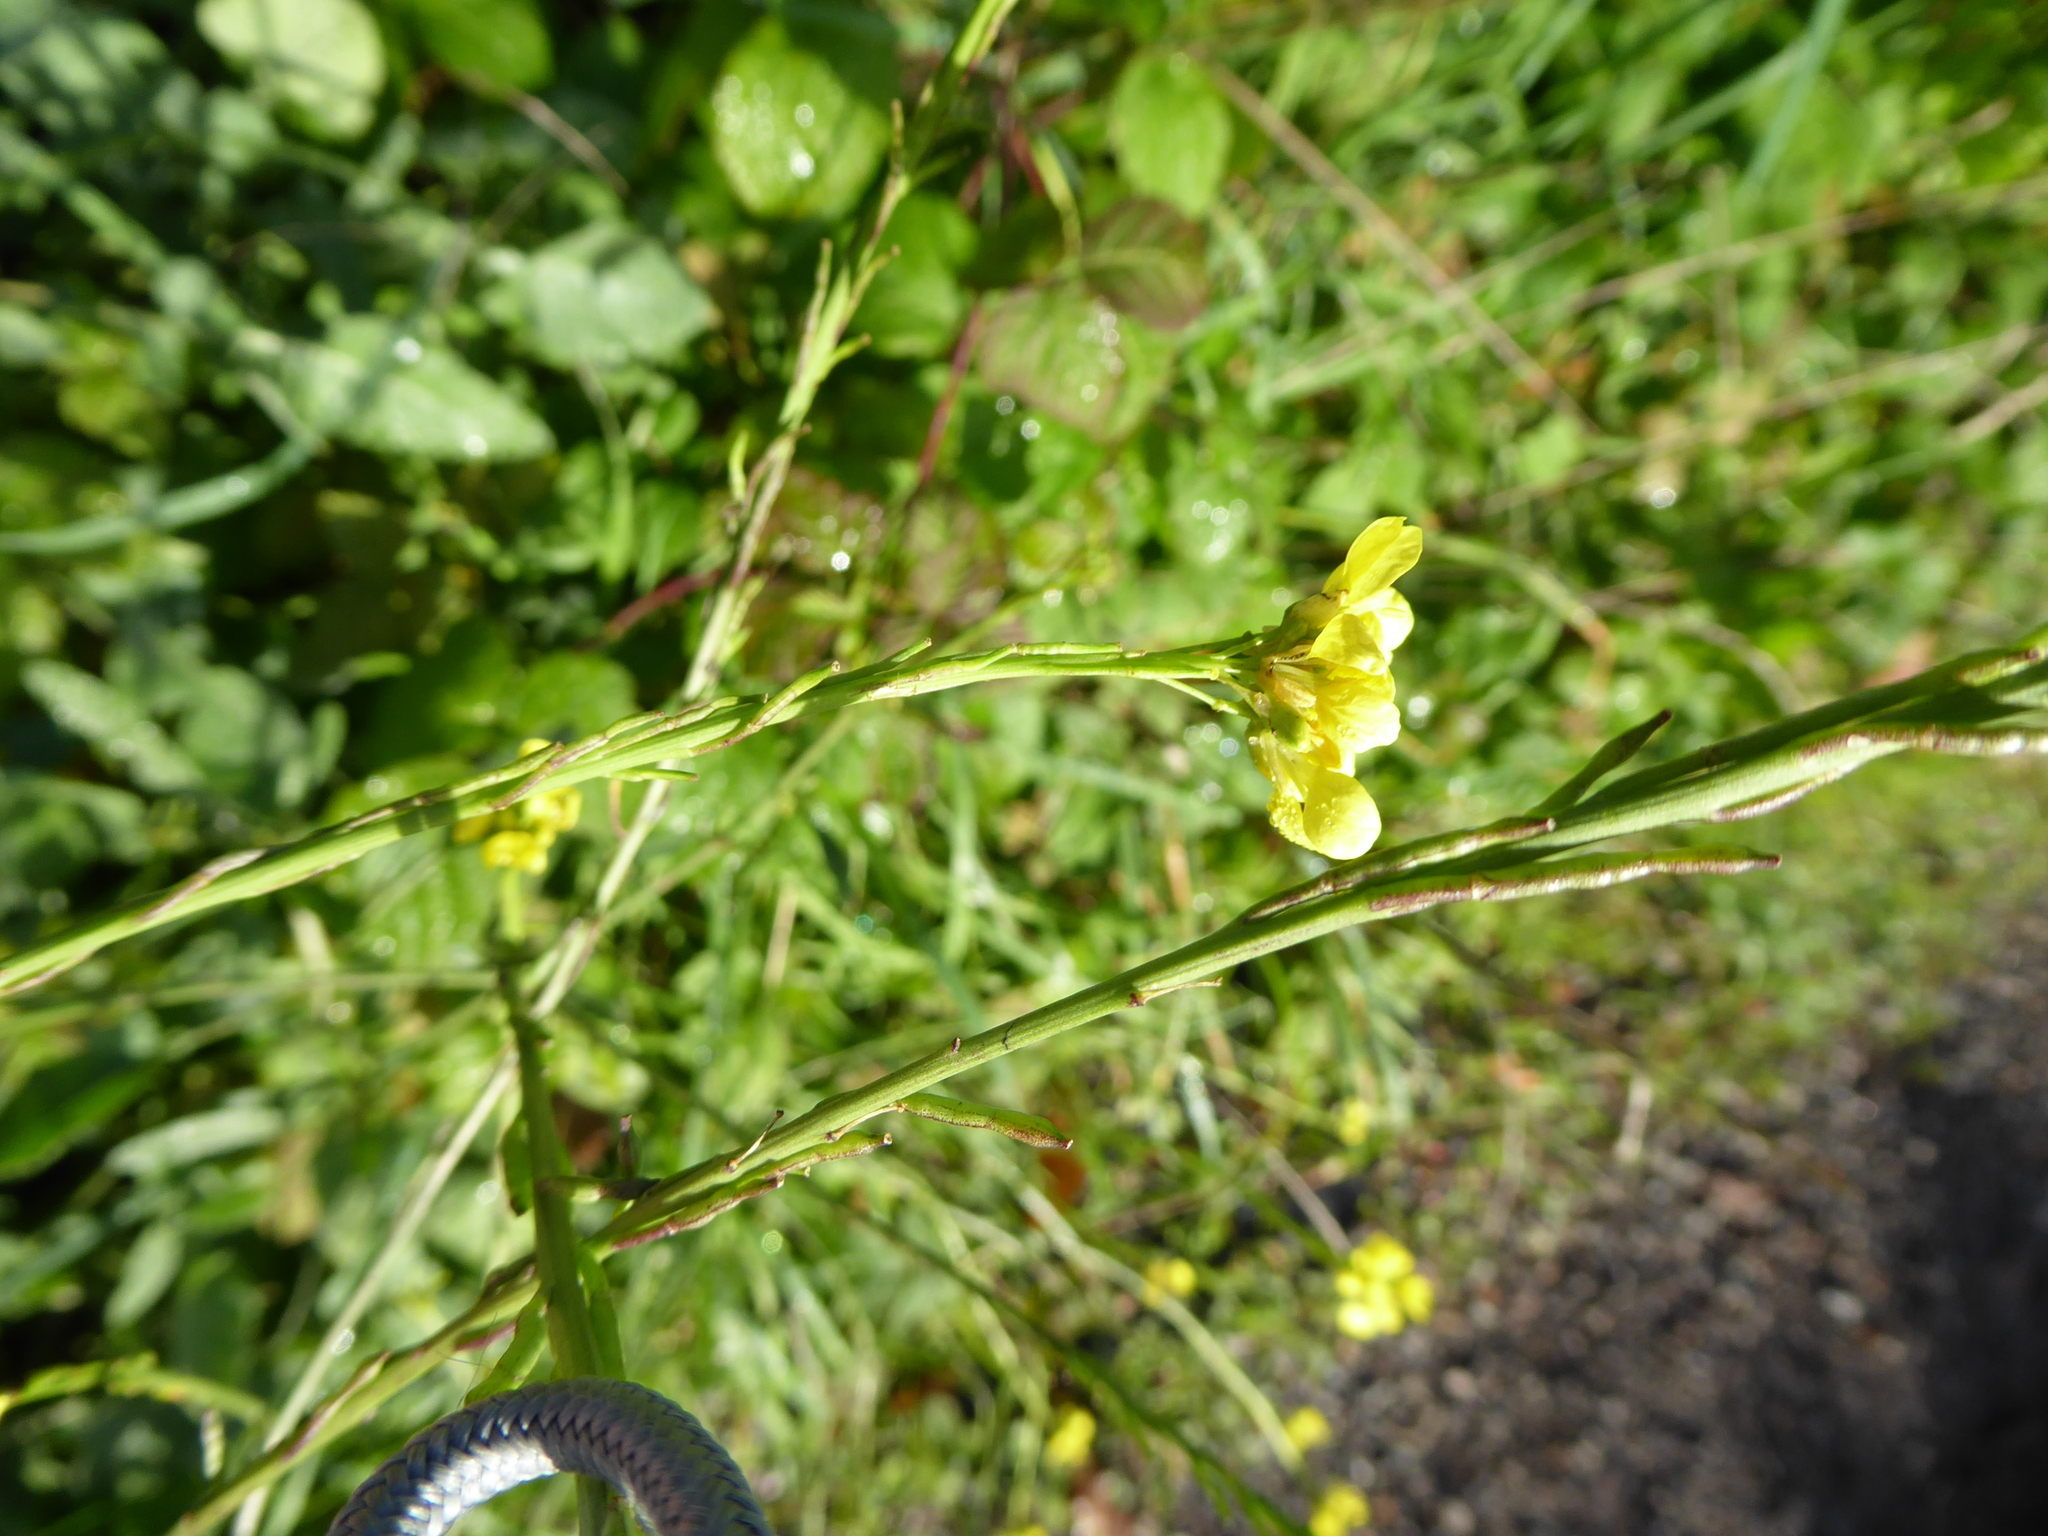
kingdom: Plantae
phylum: Tracheophyta
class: Magnoliopsida
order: Brassicales
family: Brassicaceae
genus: Hirschfeldia
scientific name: Hirschfeldia incana
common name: Hoary mustard
